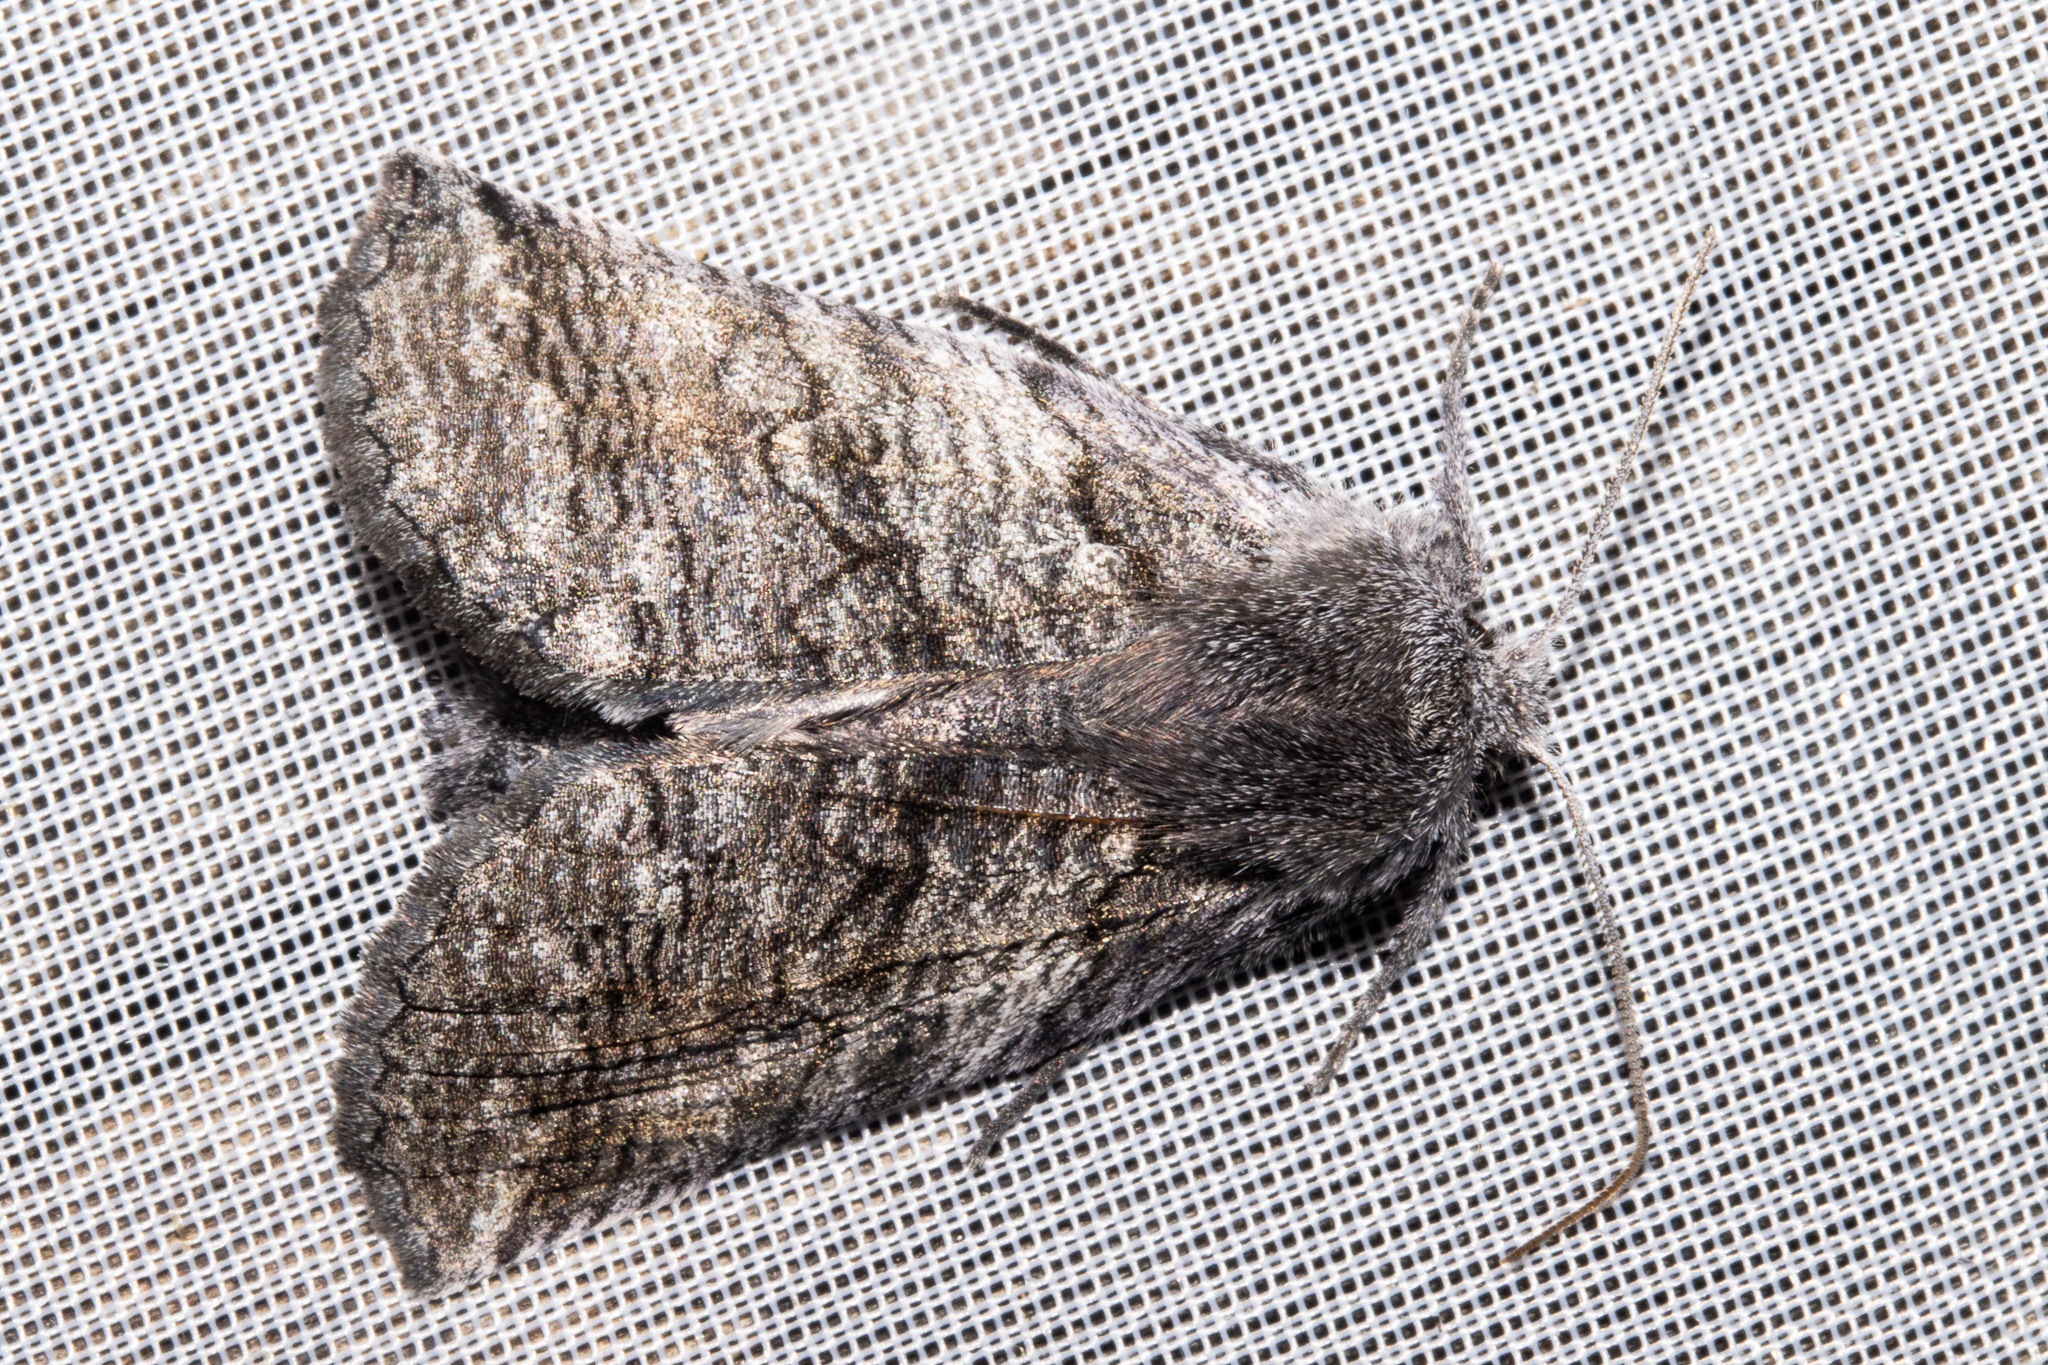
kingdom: Animalia
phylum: Arthropoda
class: Insecta
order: Lepidoptera
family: Geometridae
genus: Declana
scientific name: Declana
